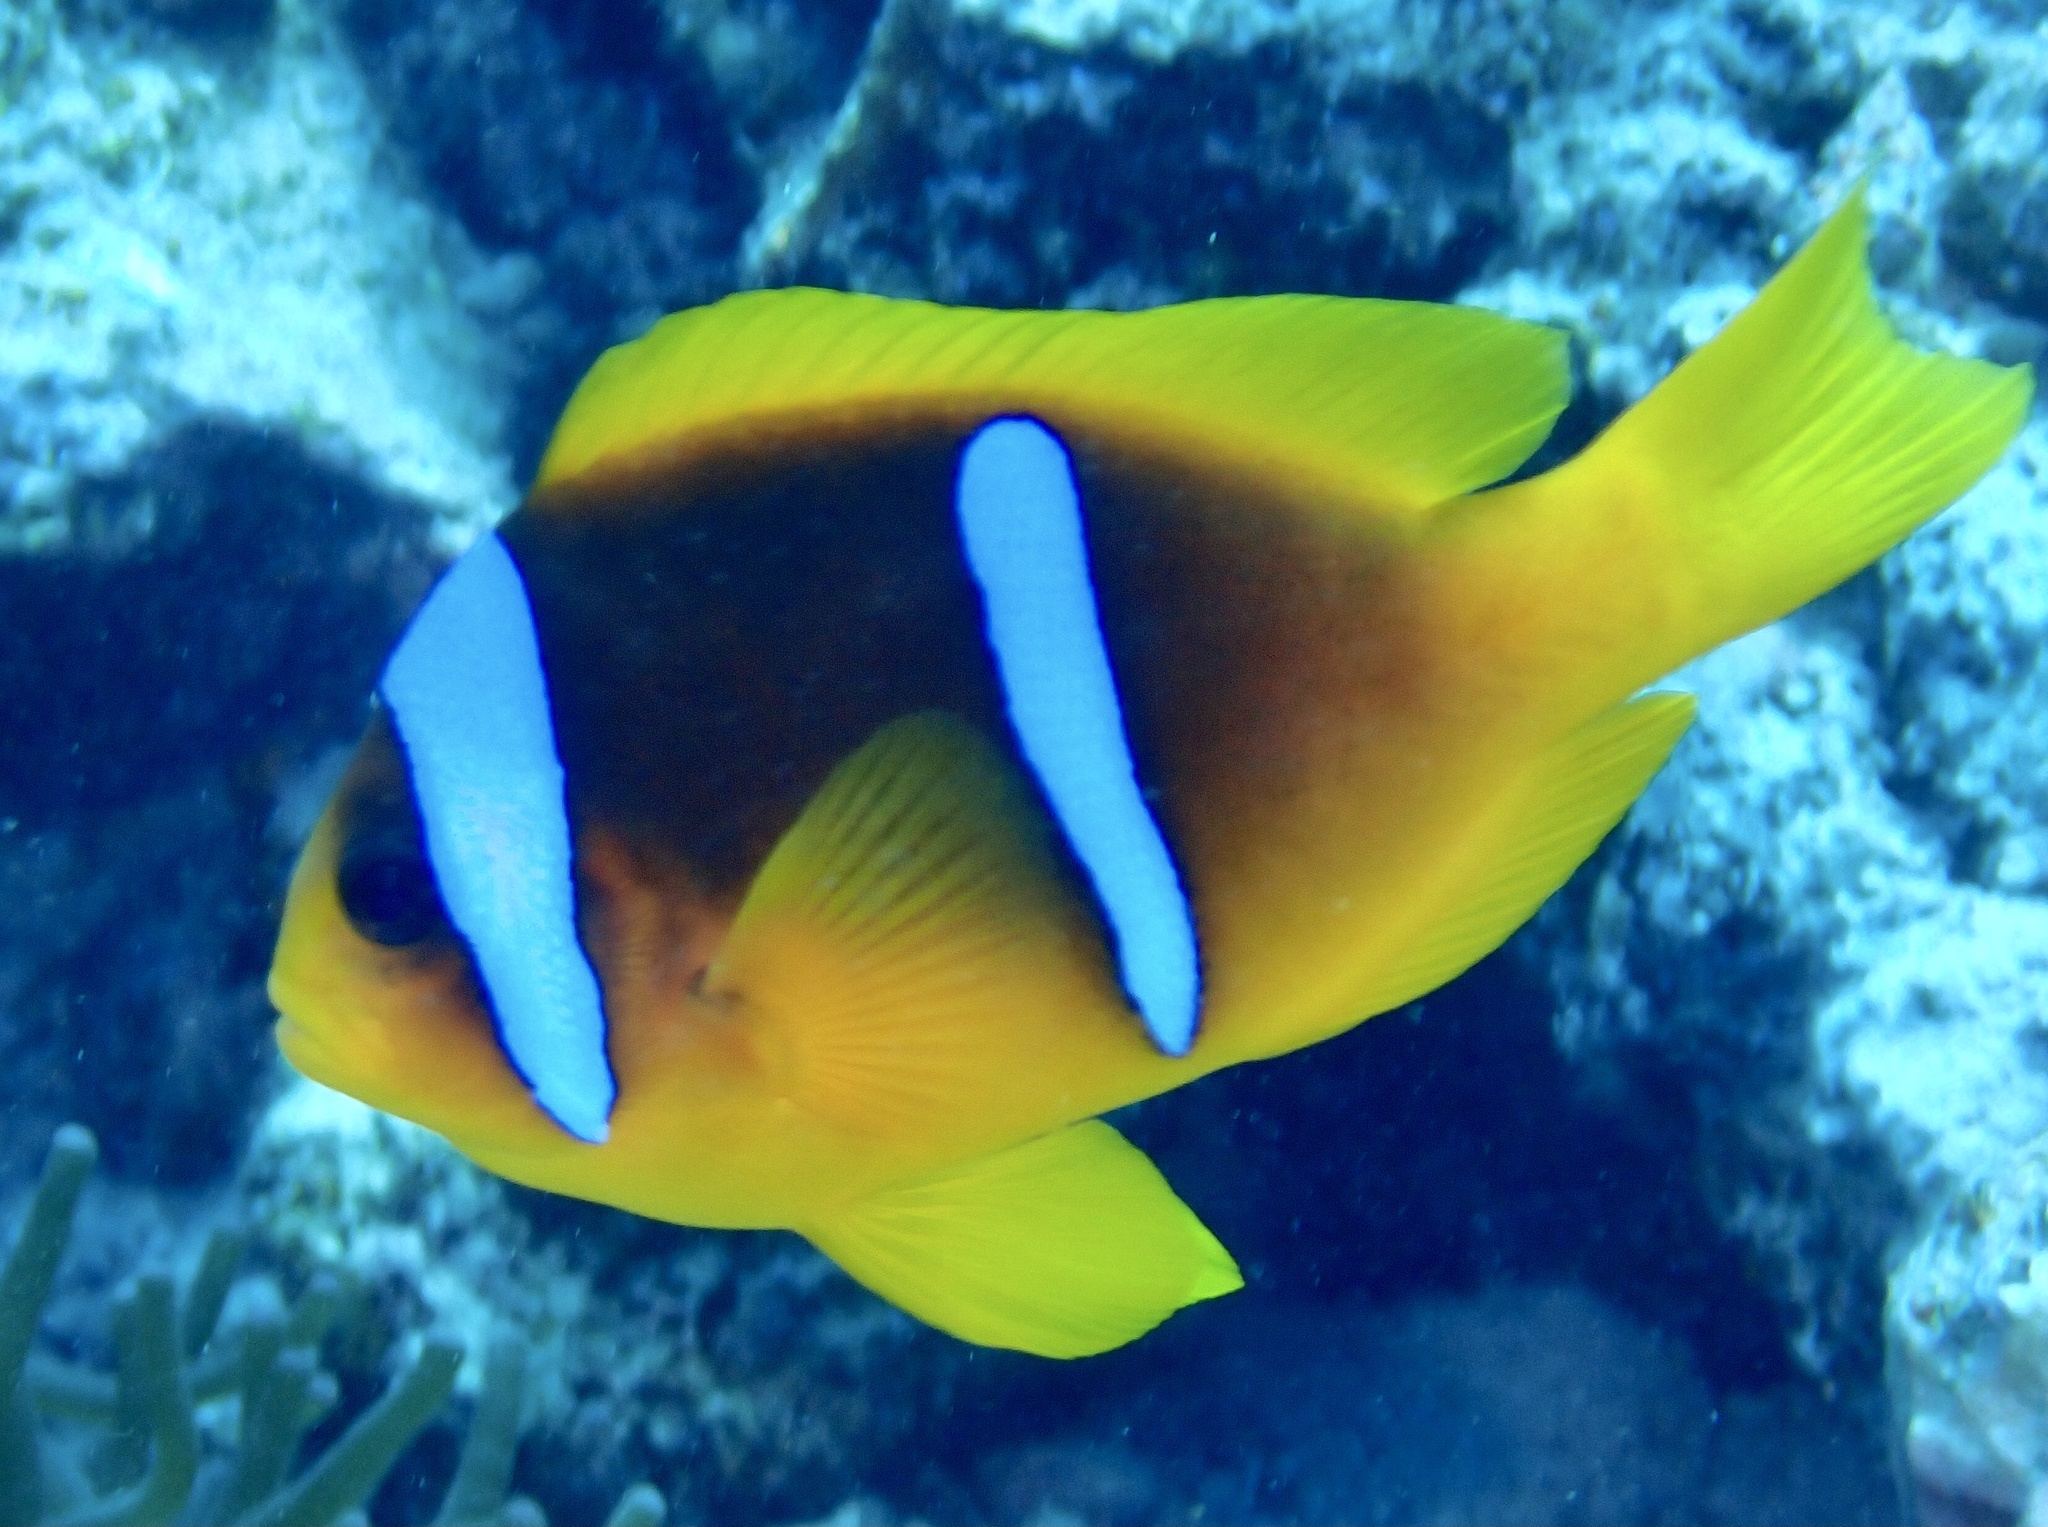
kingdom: Animalia
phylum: Chordata
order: Perciformes
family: Pomacentridae
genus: Amphiprion
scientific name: Amphiprion bicinctus
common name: Two-banded anemonefish
